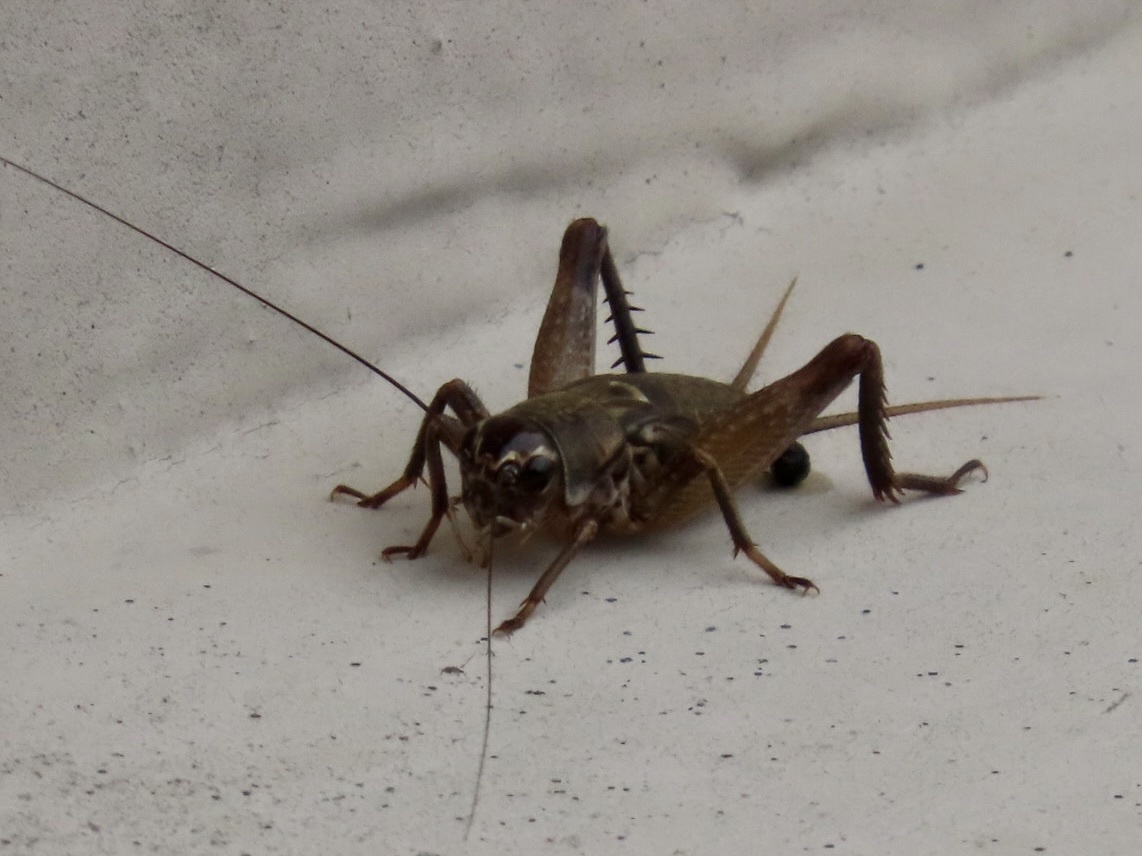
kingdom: Animalia
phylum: Arthropoda
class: Insecta
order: Orthoptera
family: Gryllidae
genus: Teleogryllus
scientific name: Teleogryllus mitratus
